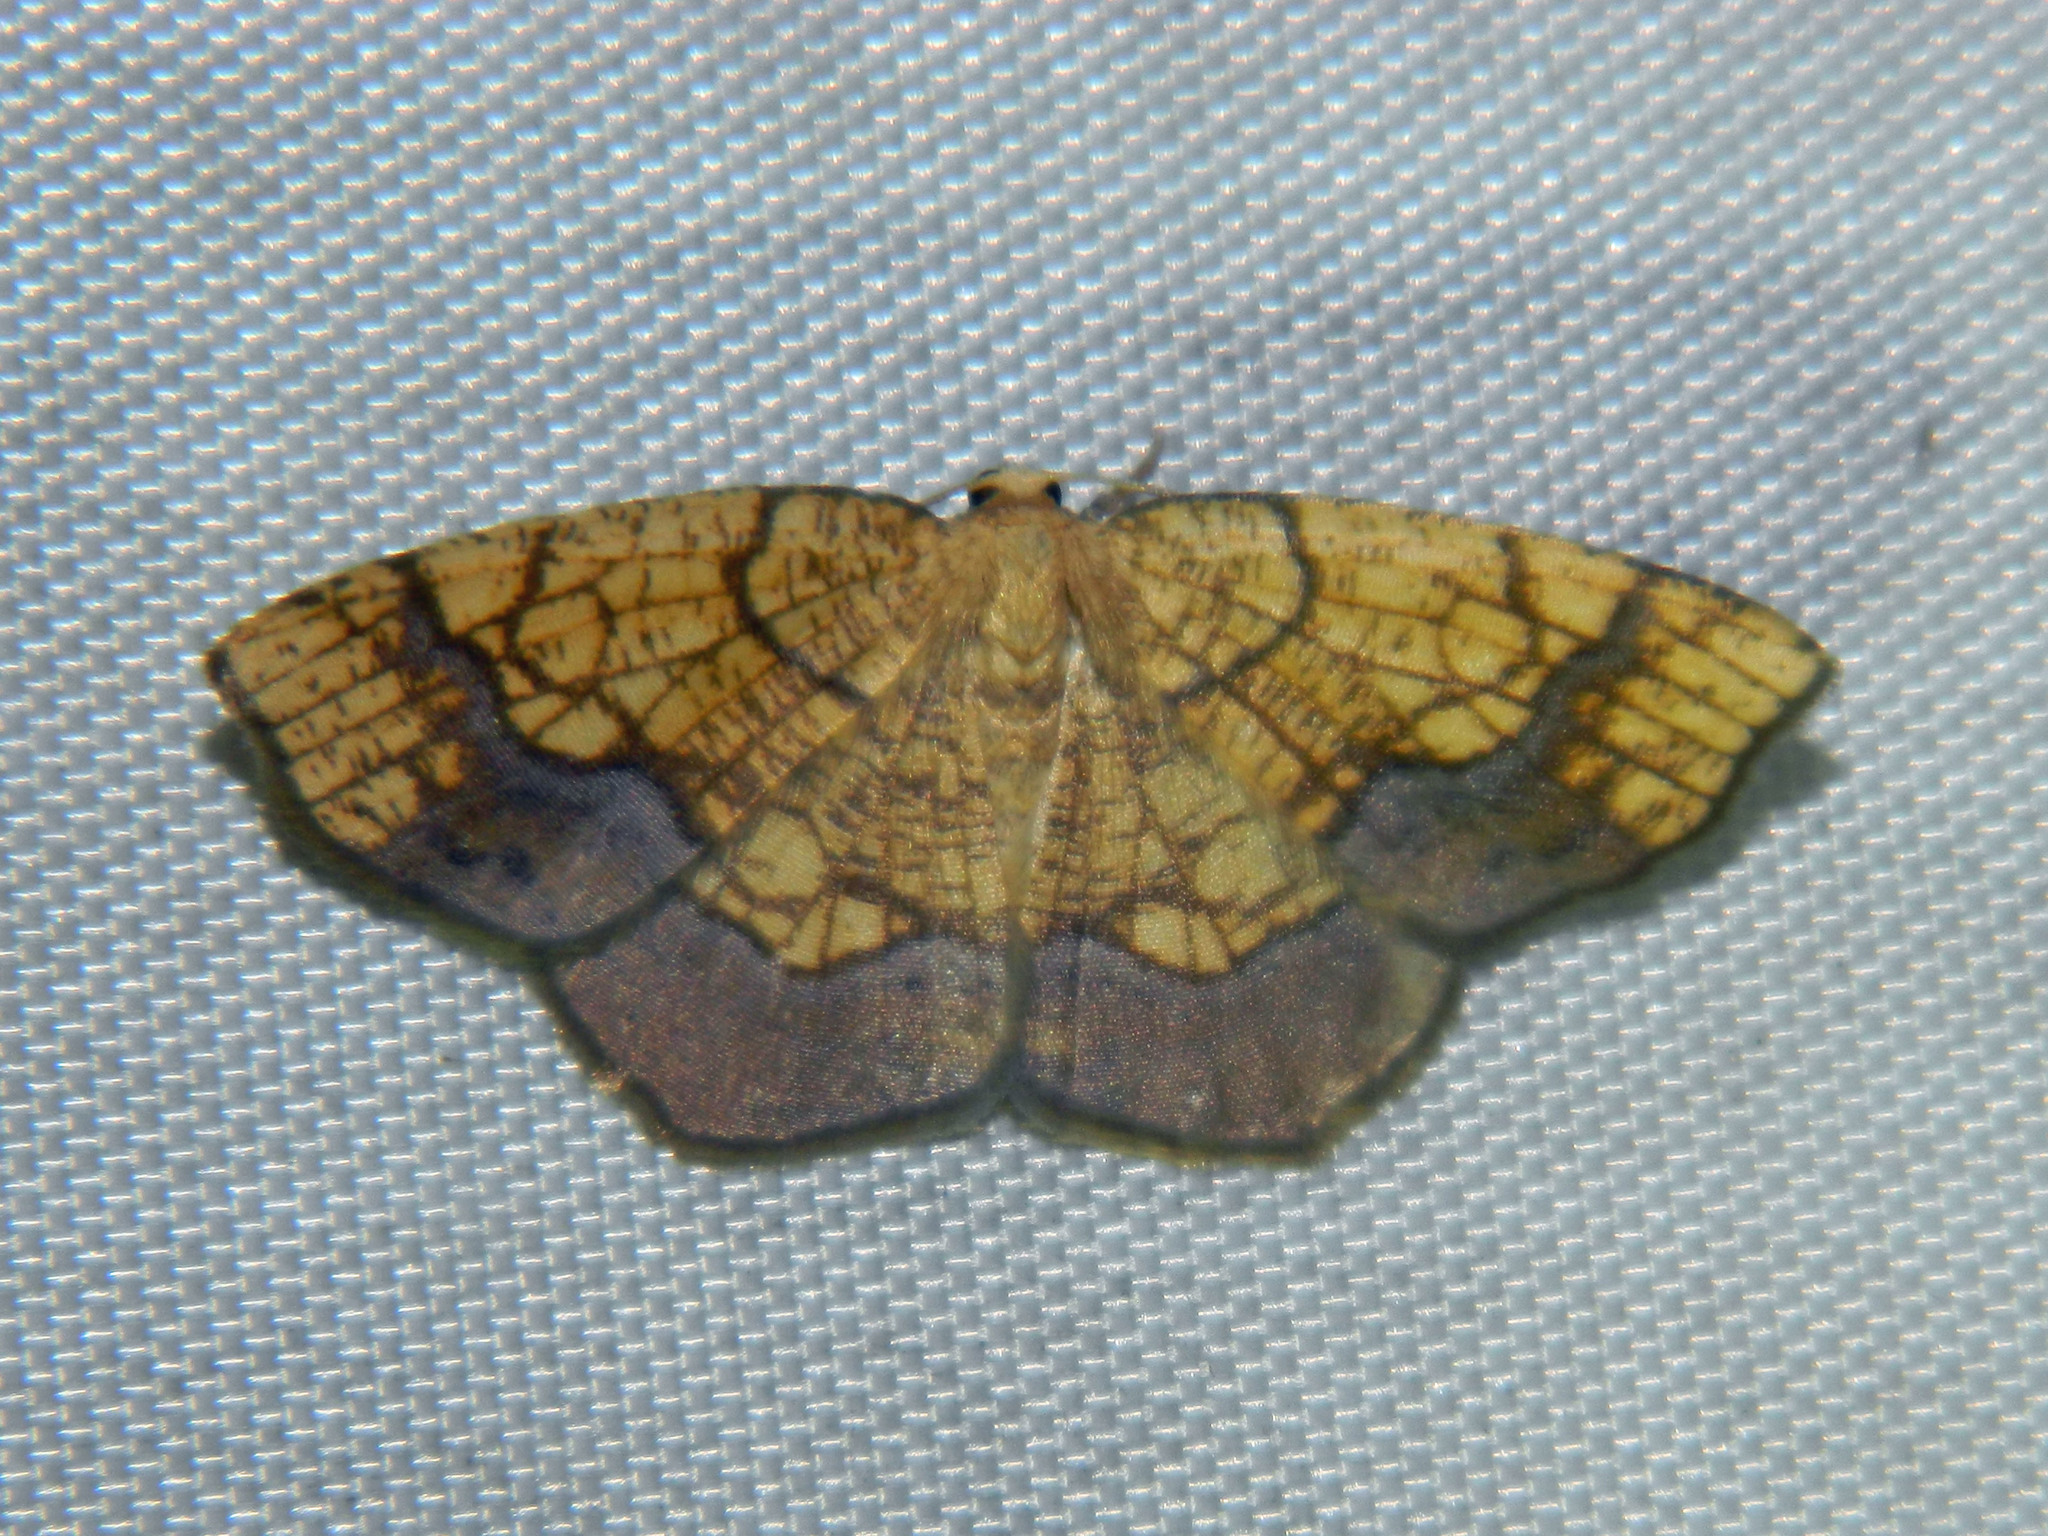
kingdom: Animalia
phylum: Arthropoda
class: Insecta
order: Lepidoptera
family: Geometridae
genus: Nematocampa
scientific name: Nematocampa resistaria
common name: Horned spanworm moth
